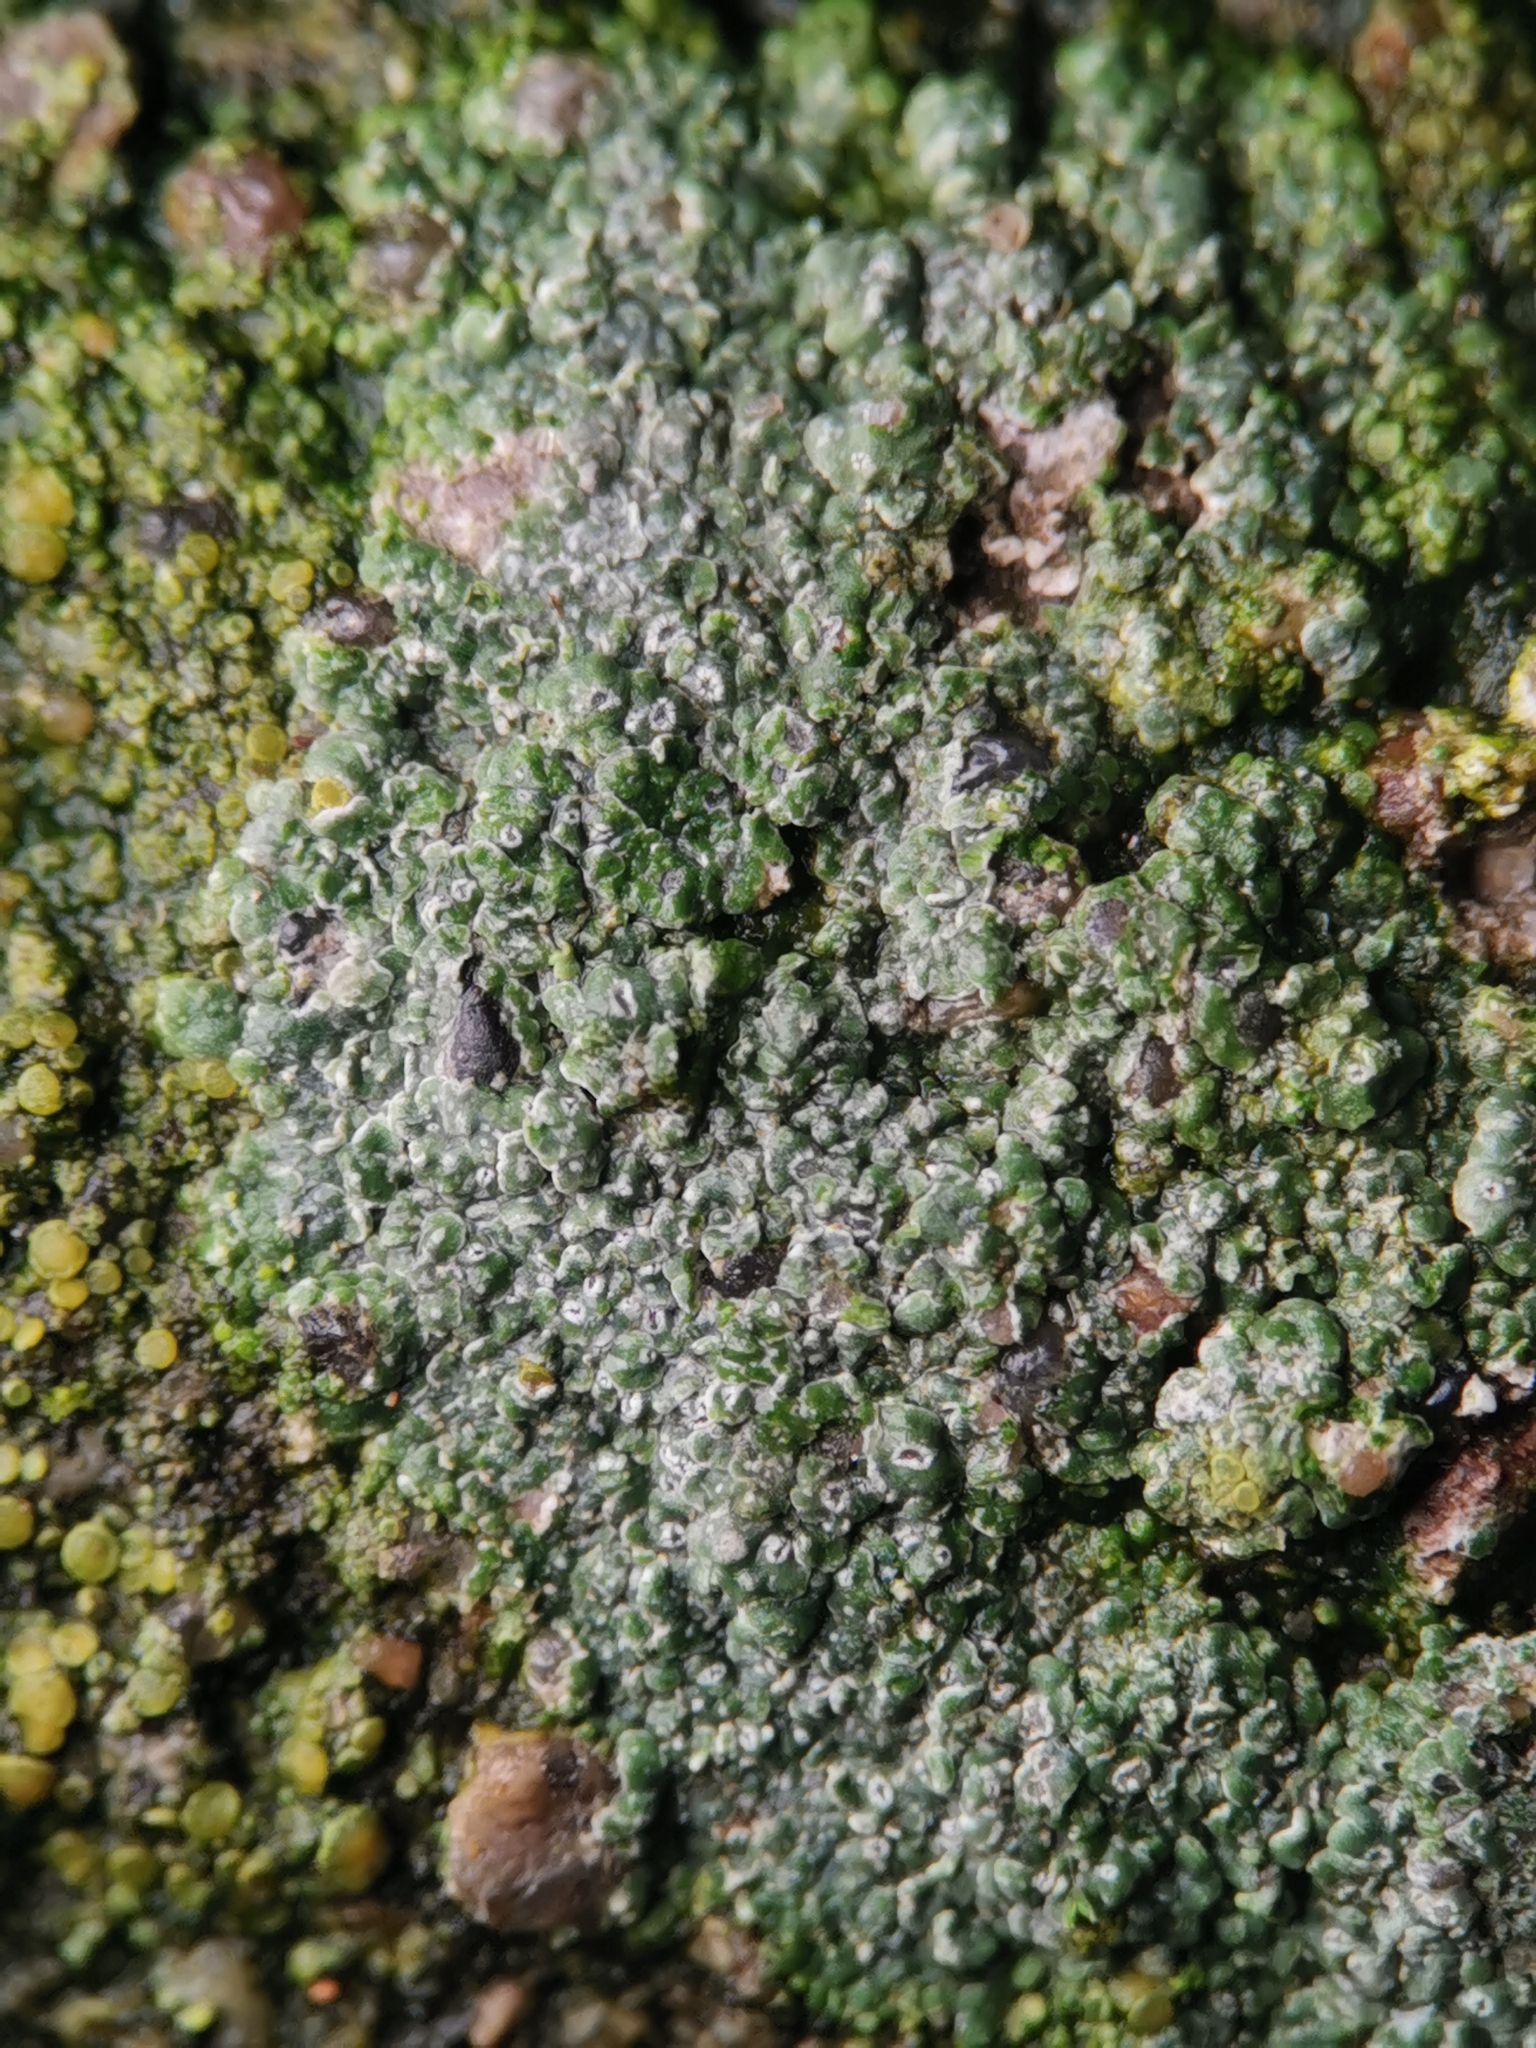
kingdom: Fungi
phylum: Ascomycota
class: Lecanoromycetes
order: Pertusariales
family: Megasporaceae
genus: Circinaria
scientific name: Circinaria contorta
